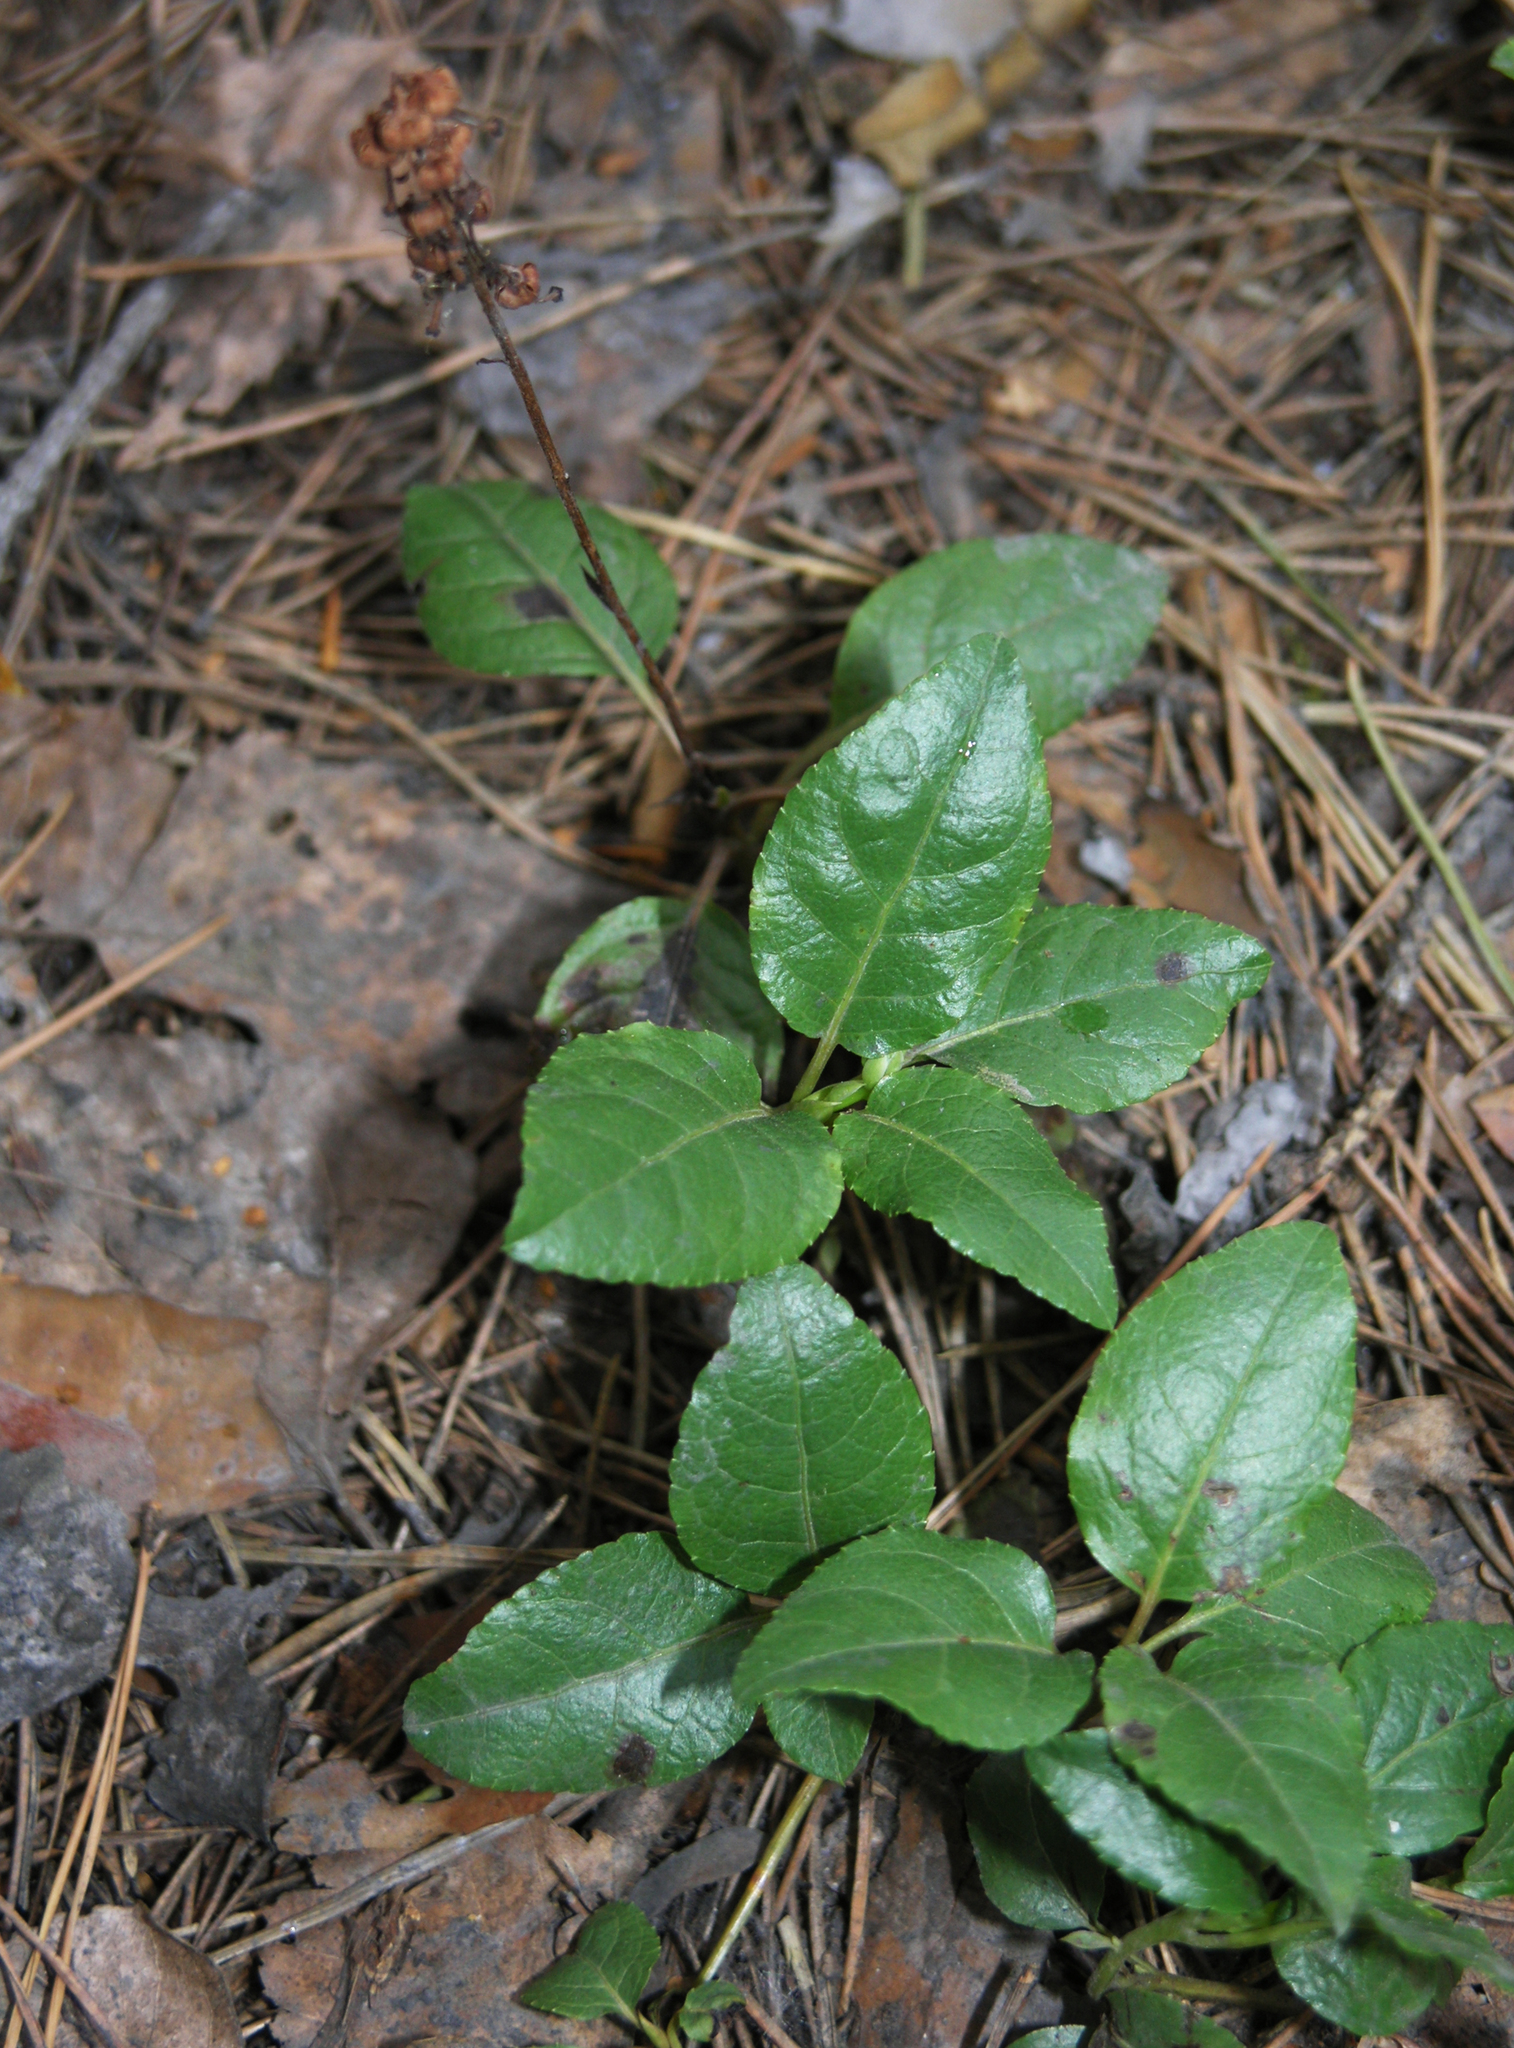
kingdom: Plantae
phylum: Tracheophyta
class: Magnoliopsida
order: Ericales
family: Ericaceae
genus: Orthilia
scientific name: Orthilia secunda
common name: One-sided orthilia
